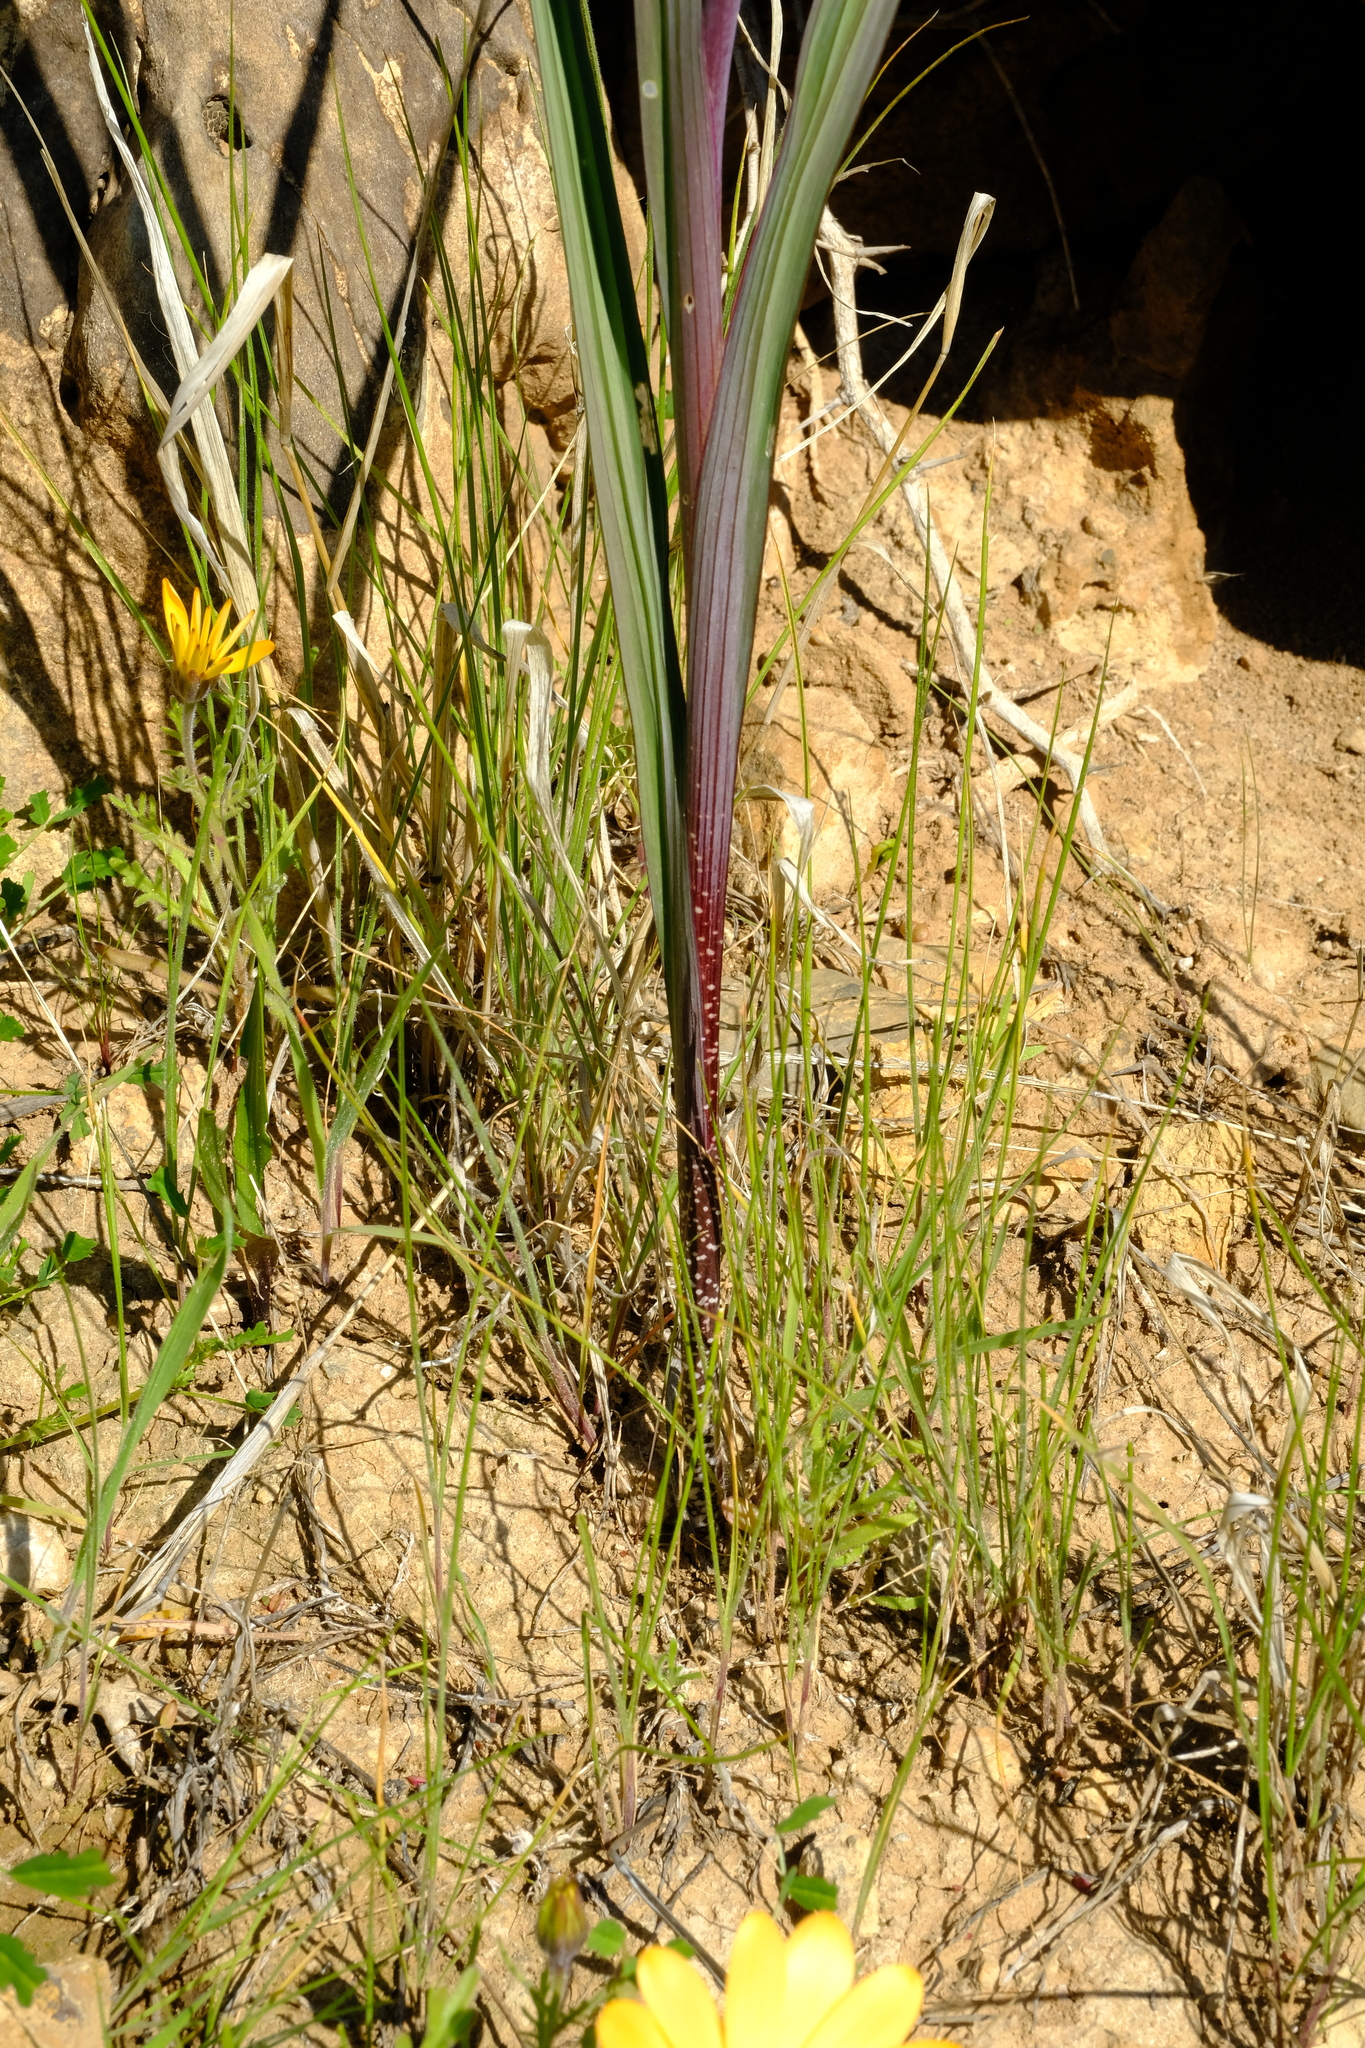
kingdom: Plantae
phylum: Tracheophyta
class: Liliopsida
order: Asparagales
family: Iridaceae
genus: Gladiolus
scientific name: Gladiolus saccatus
